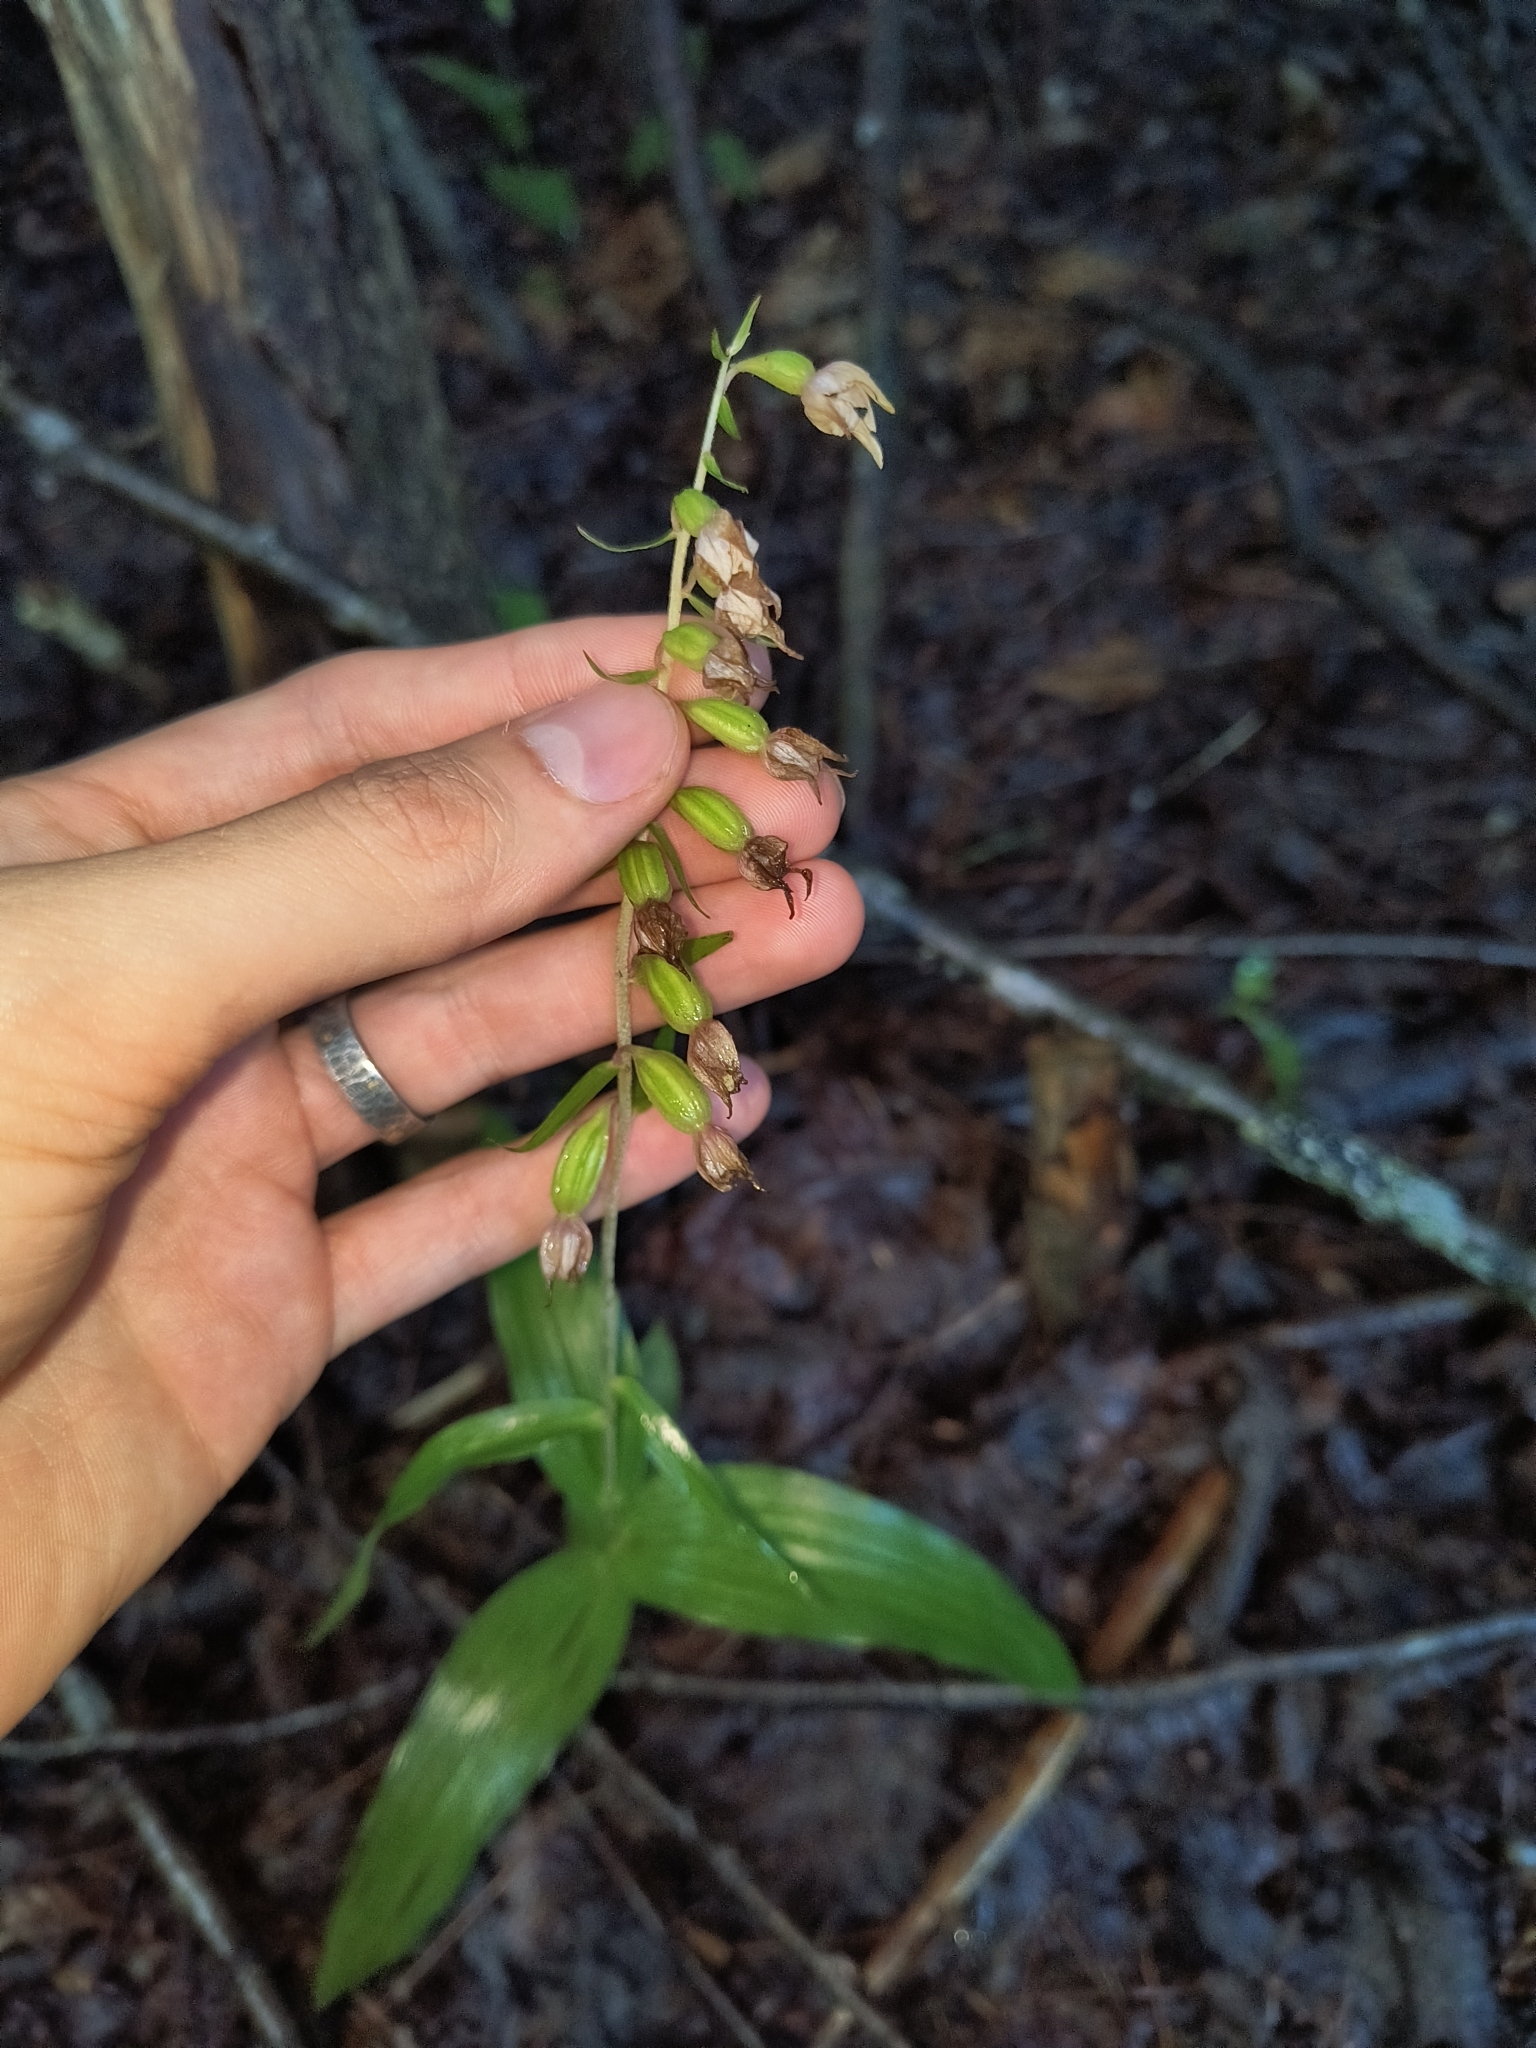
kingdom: Plantae
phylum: Tracheophyta
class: Liliopsida
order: Asparagales
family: Orchidaceae
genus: Epipactis
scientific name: Epipactis helleborine
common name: Broad-leaved helleborine
